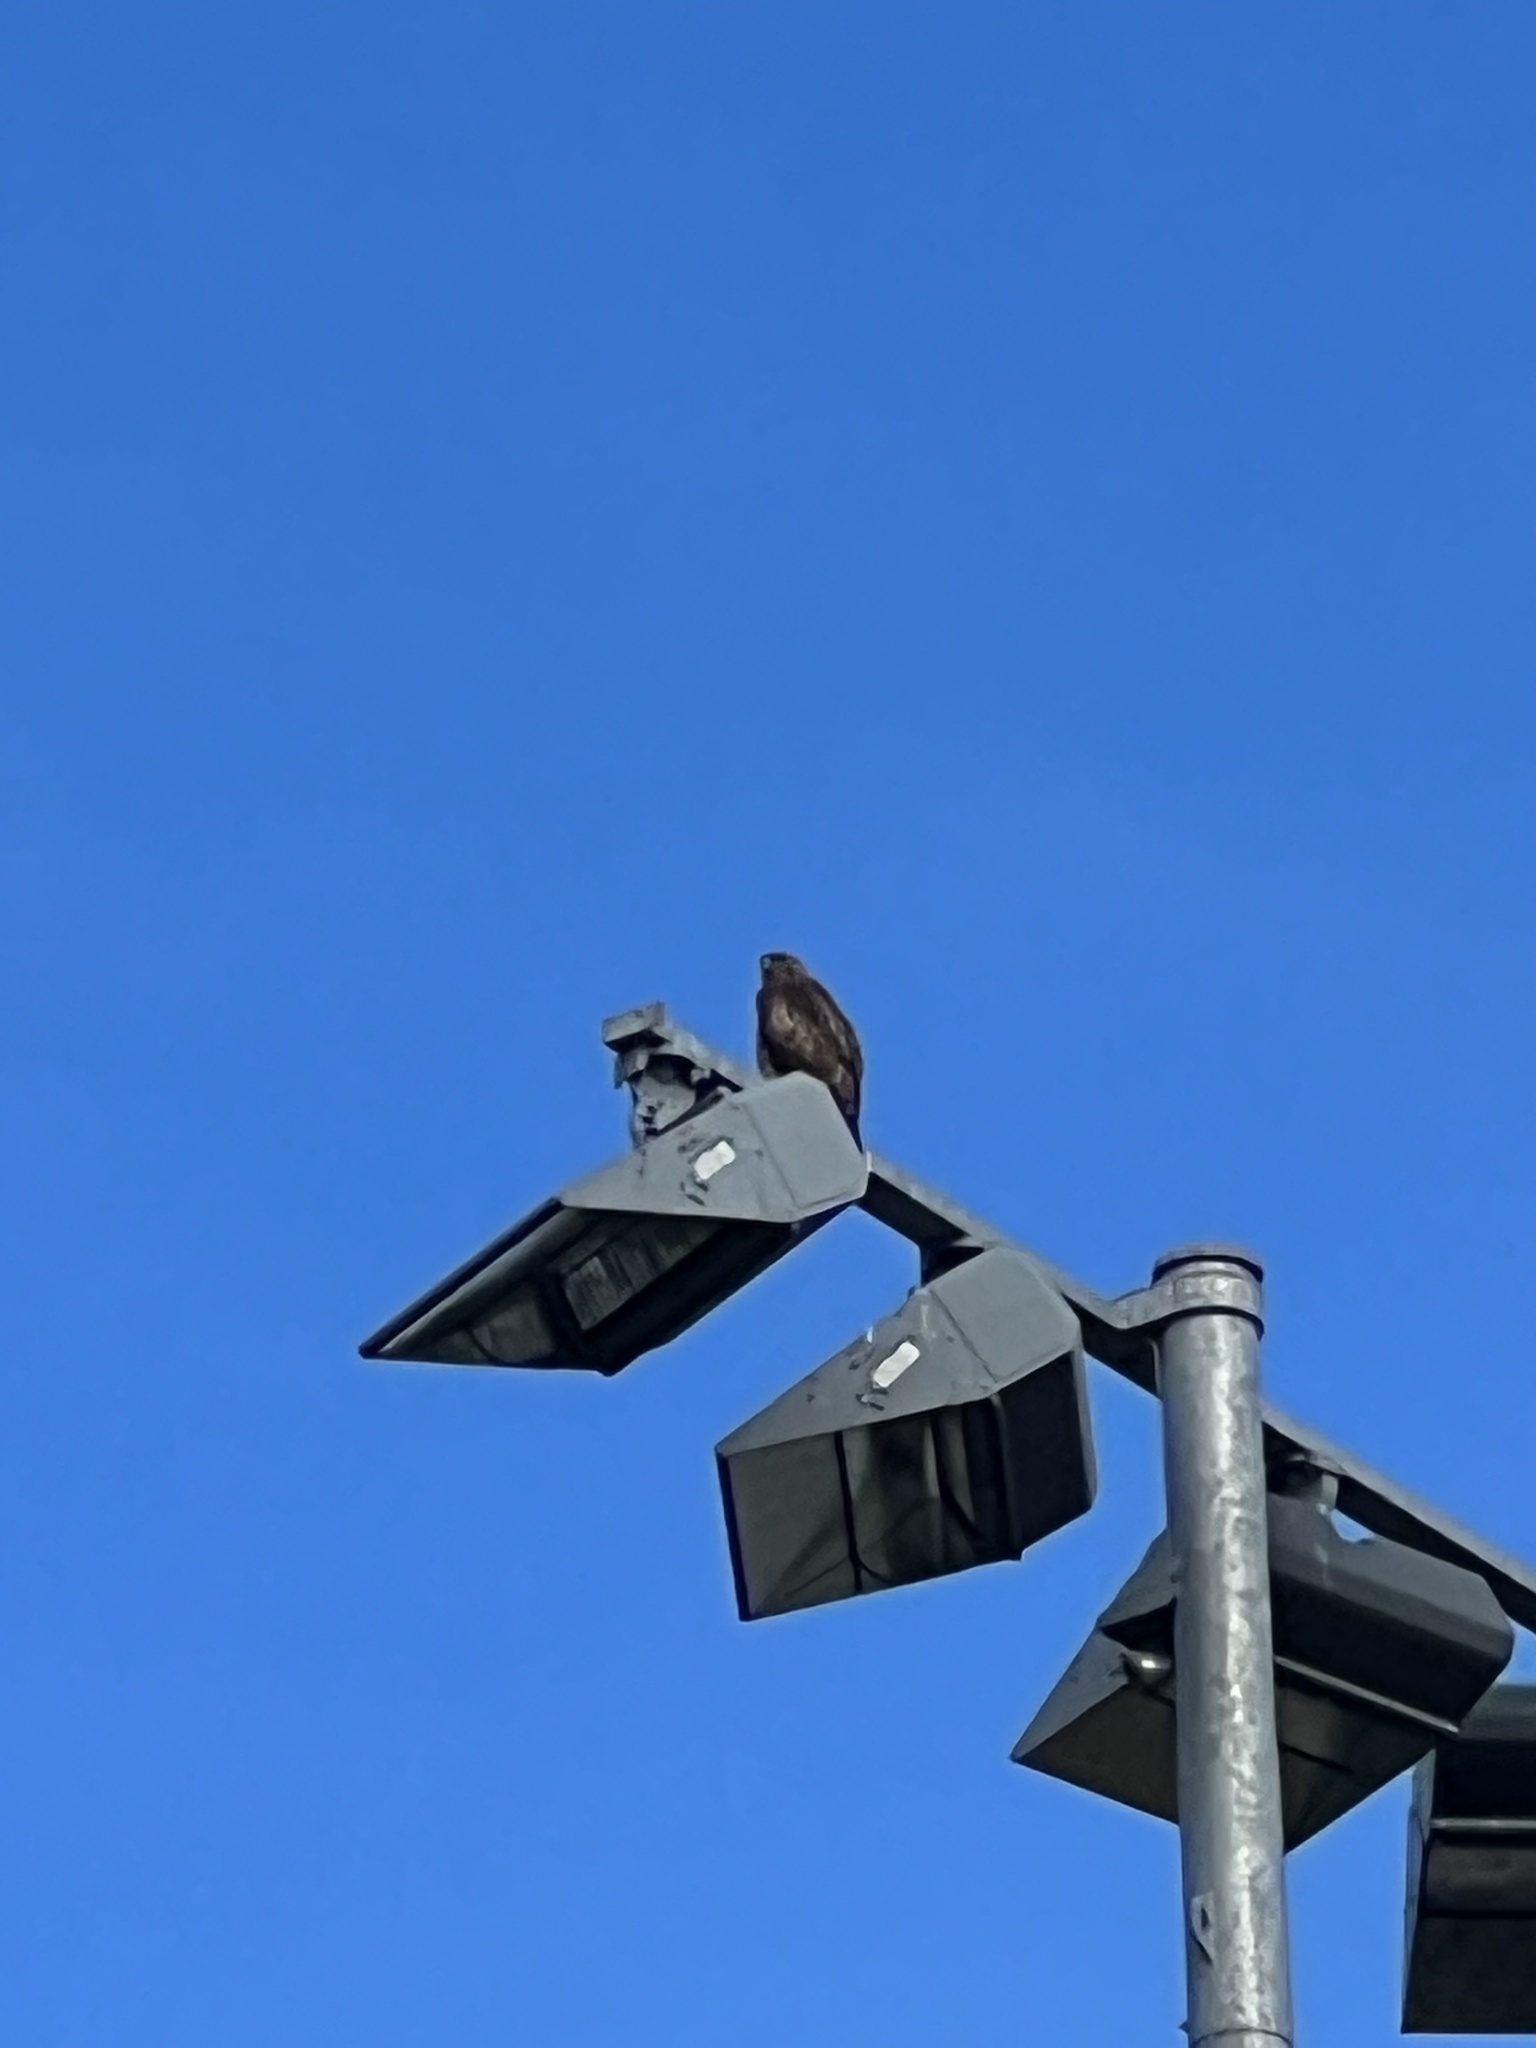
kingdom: Animalia
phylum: Chordata
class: Aves
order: Accipitriformes
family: Accipitridae
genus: Buteo
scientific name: Buteo jamaicensis
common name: Red-tailed hawk
